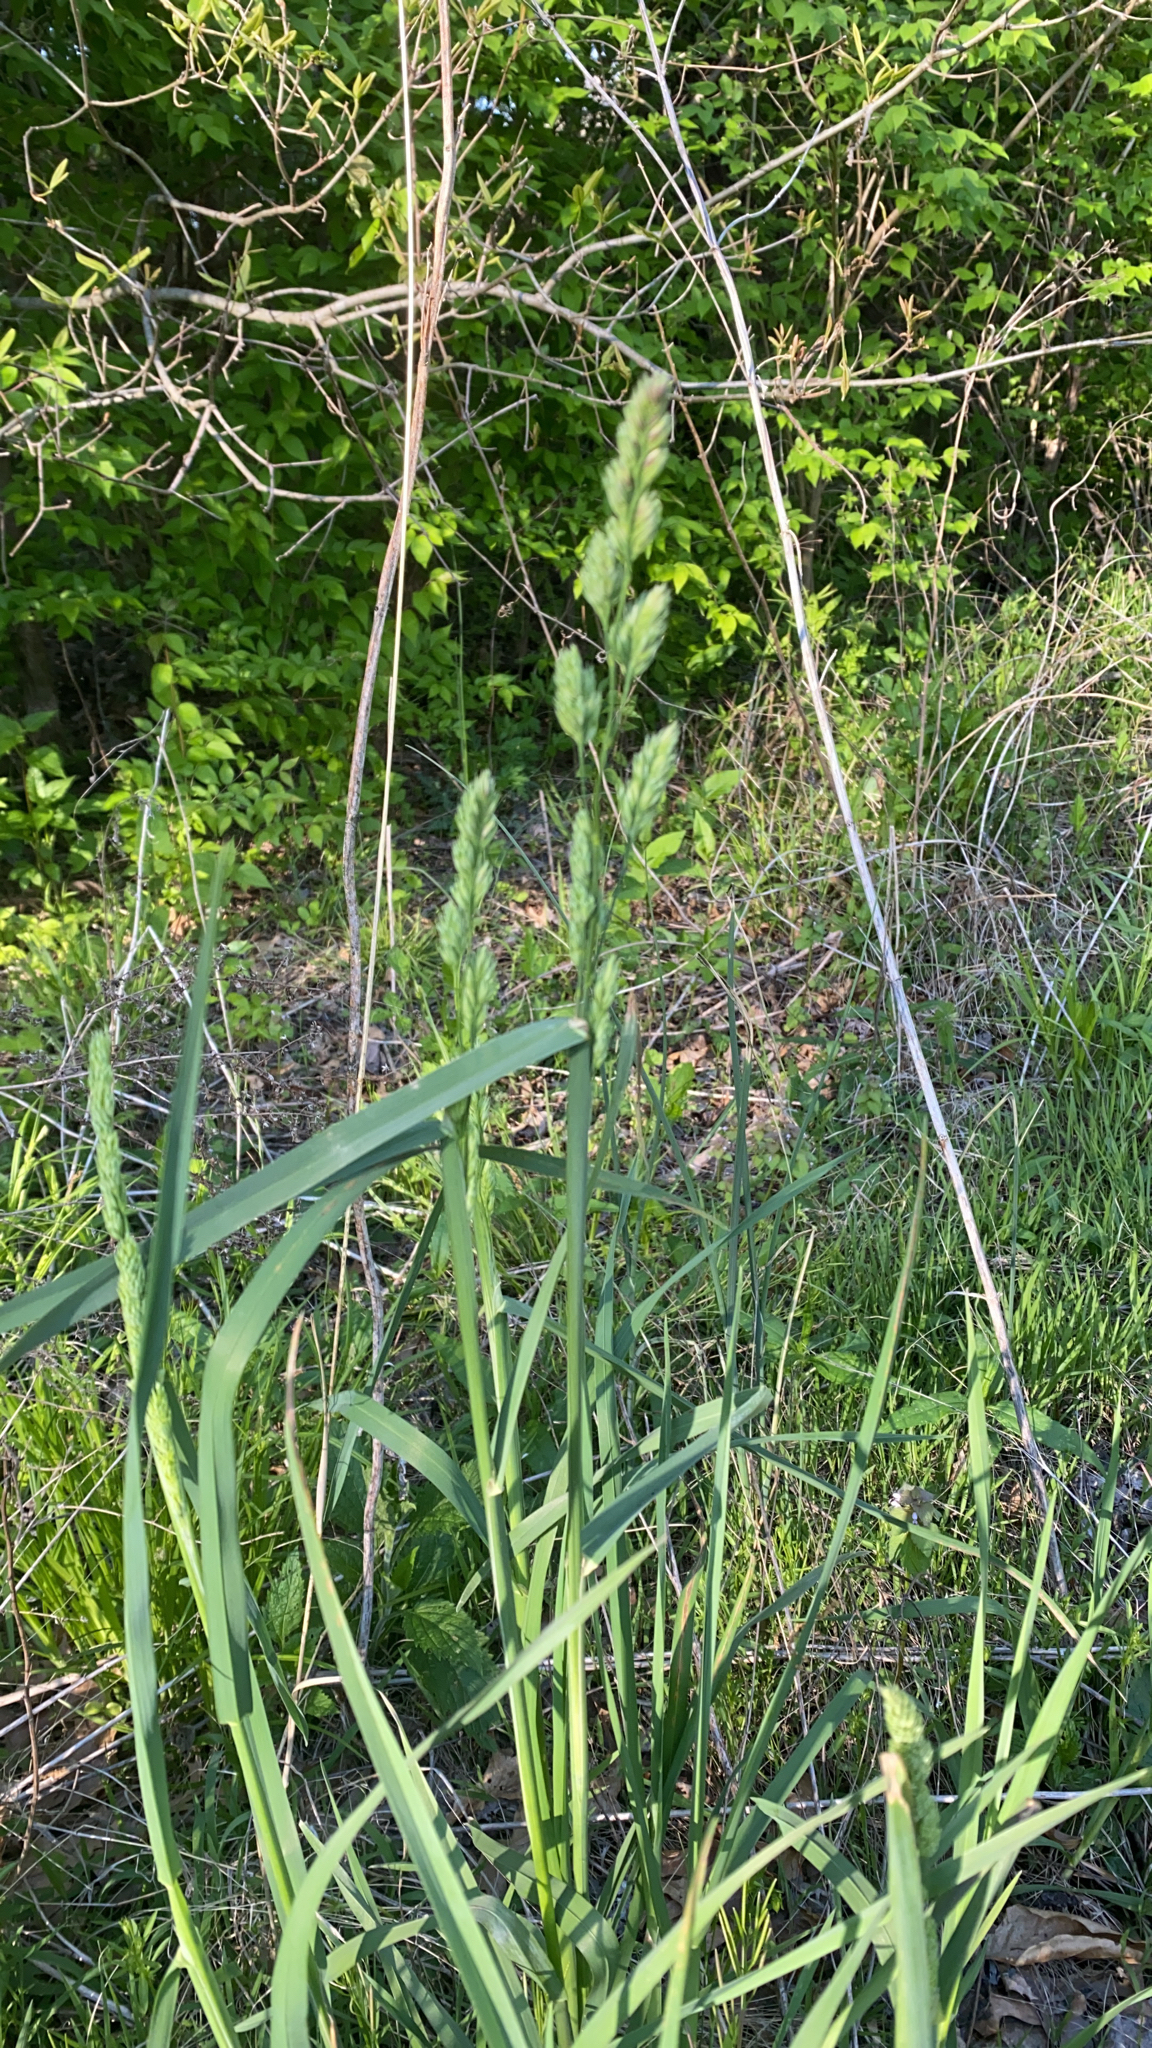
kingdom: Plantae
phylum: Tracheophyta
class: Liliopsida
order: Poales
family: Poaceae
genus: Dactylis
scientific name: Dactylis glomerata
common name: Orchardgrass
